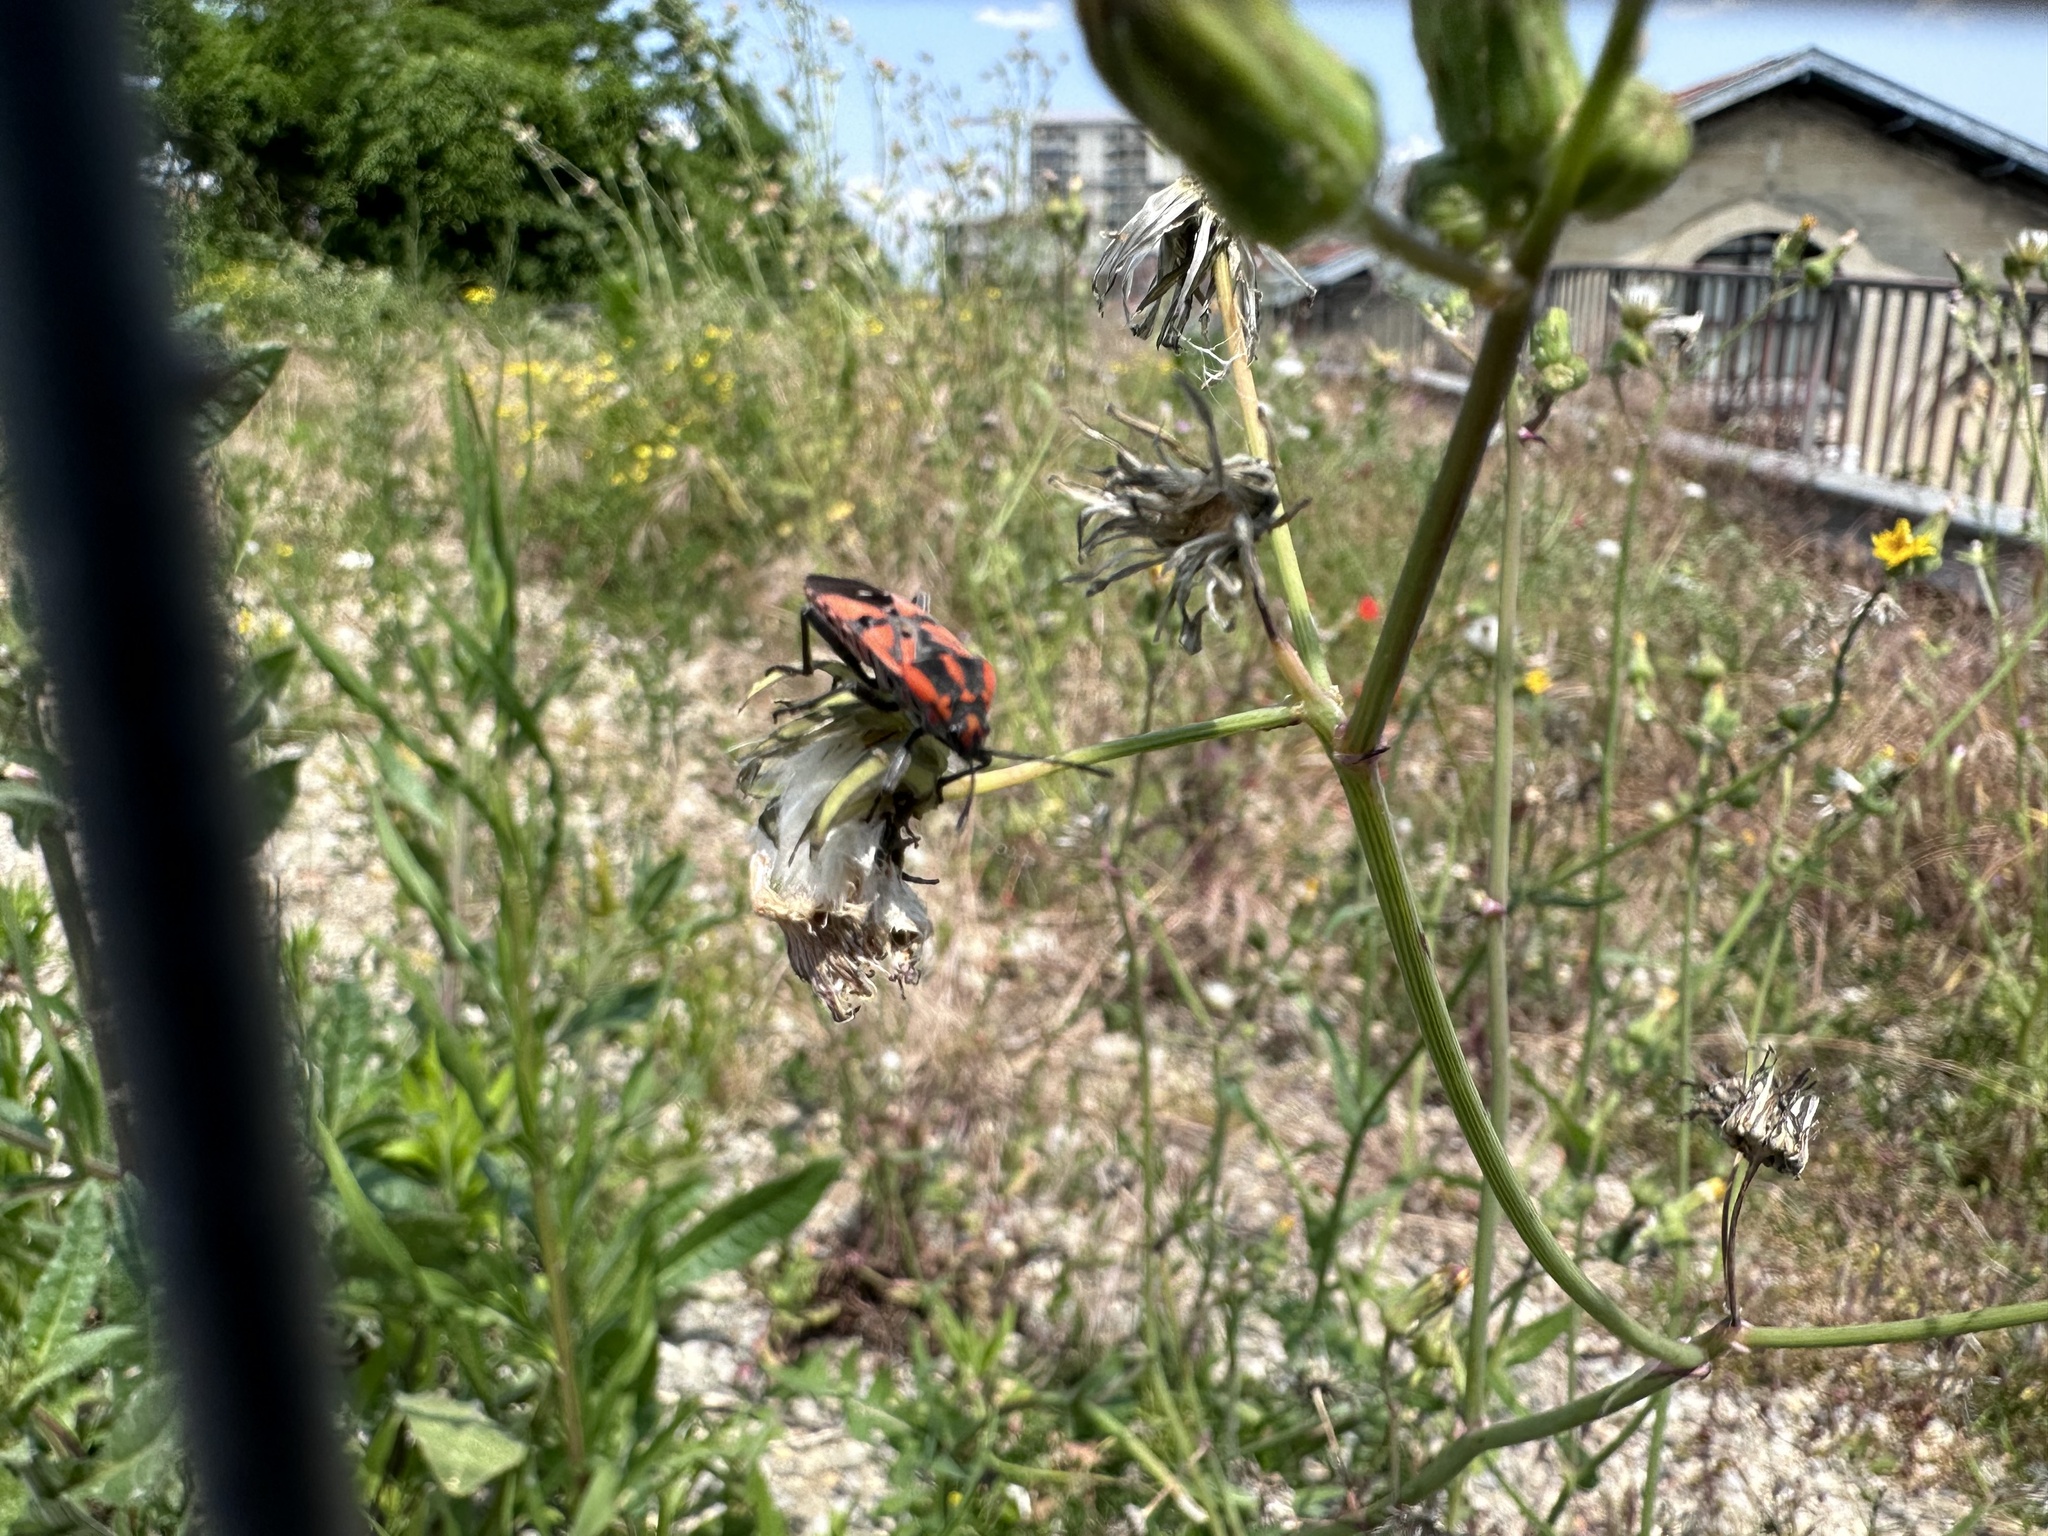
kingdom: Animalia
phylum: Arthropoda
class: Insecta
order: Hemiptera
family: Lygaeidae
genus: Spilostethus
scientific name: Spilostethus pandurus
